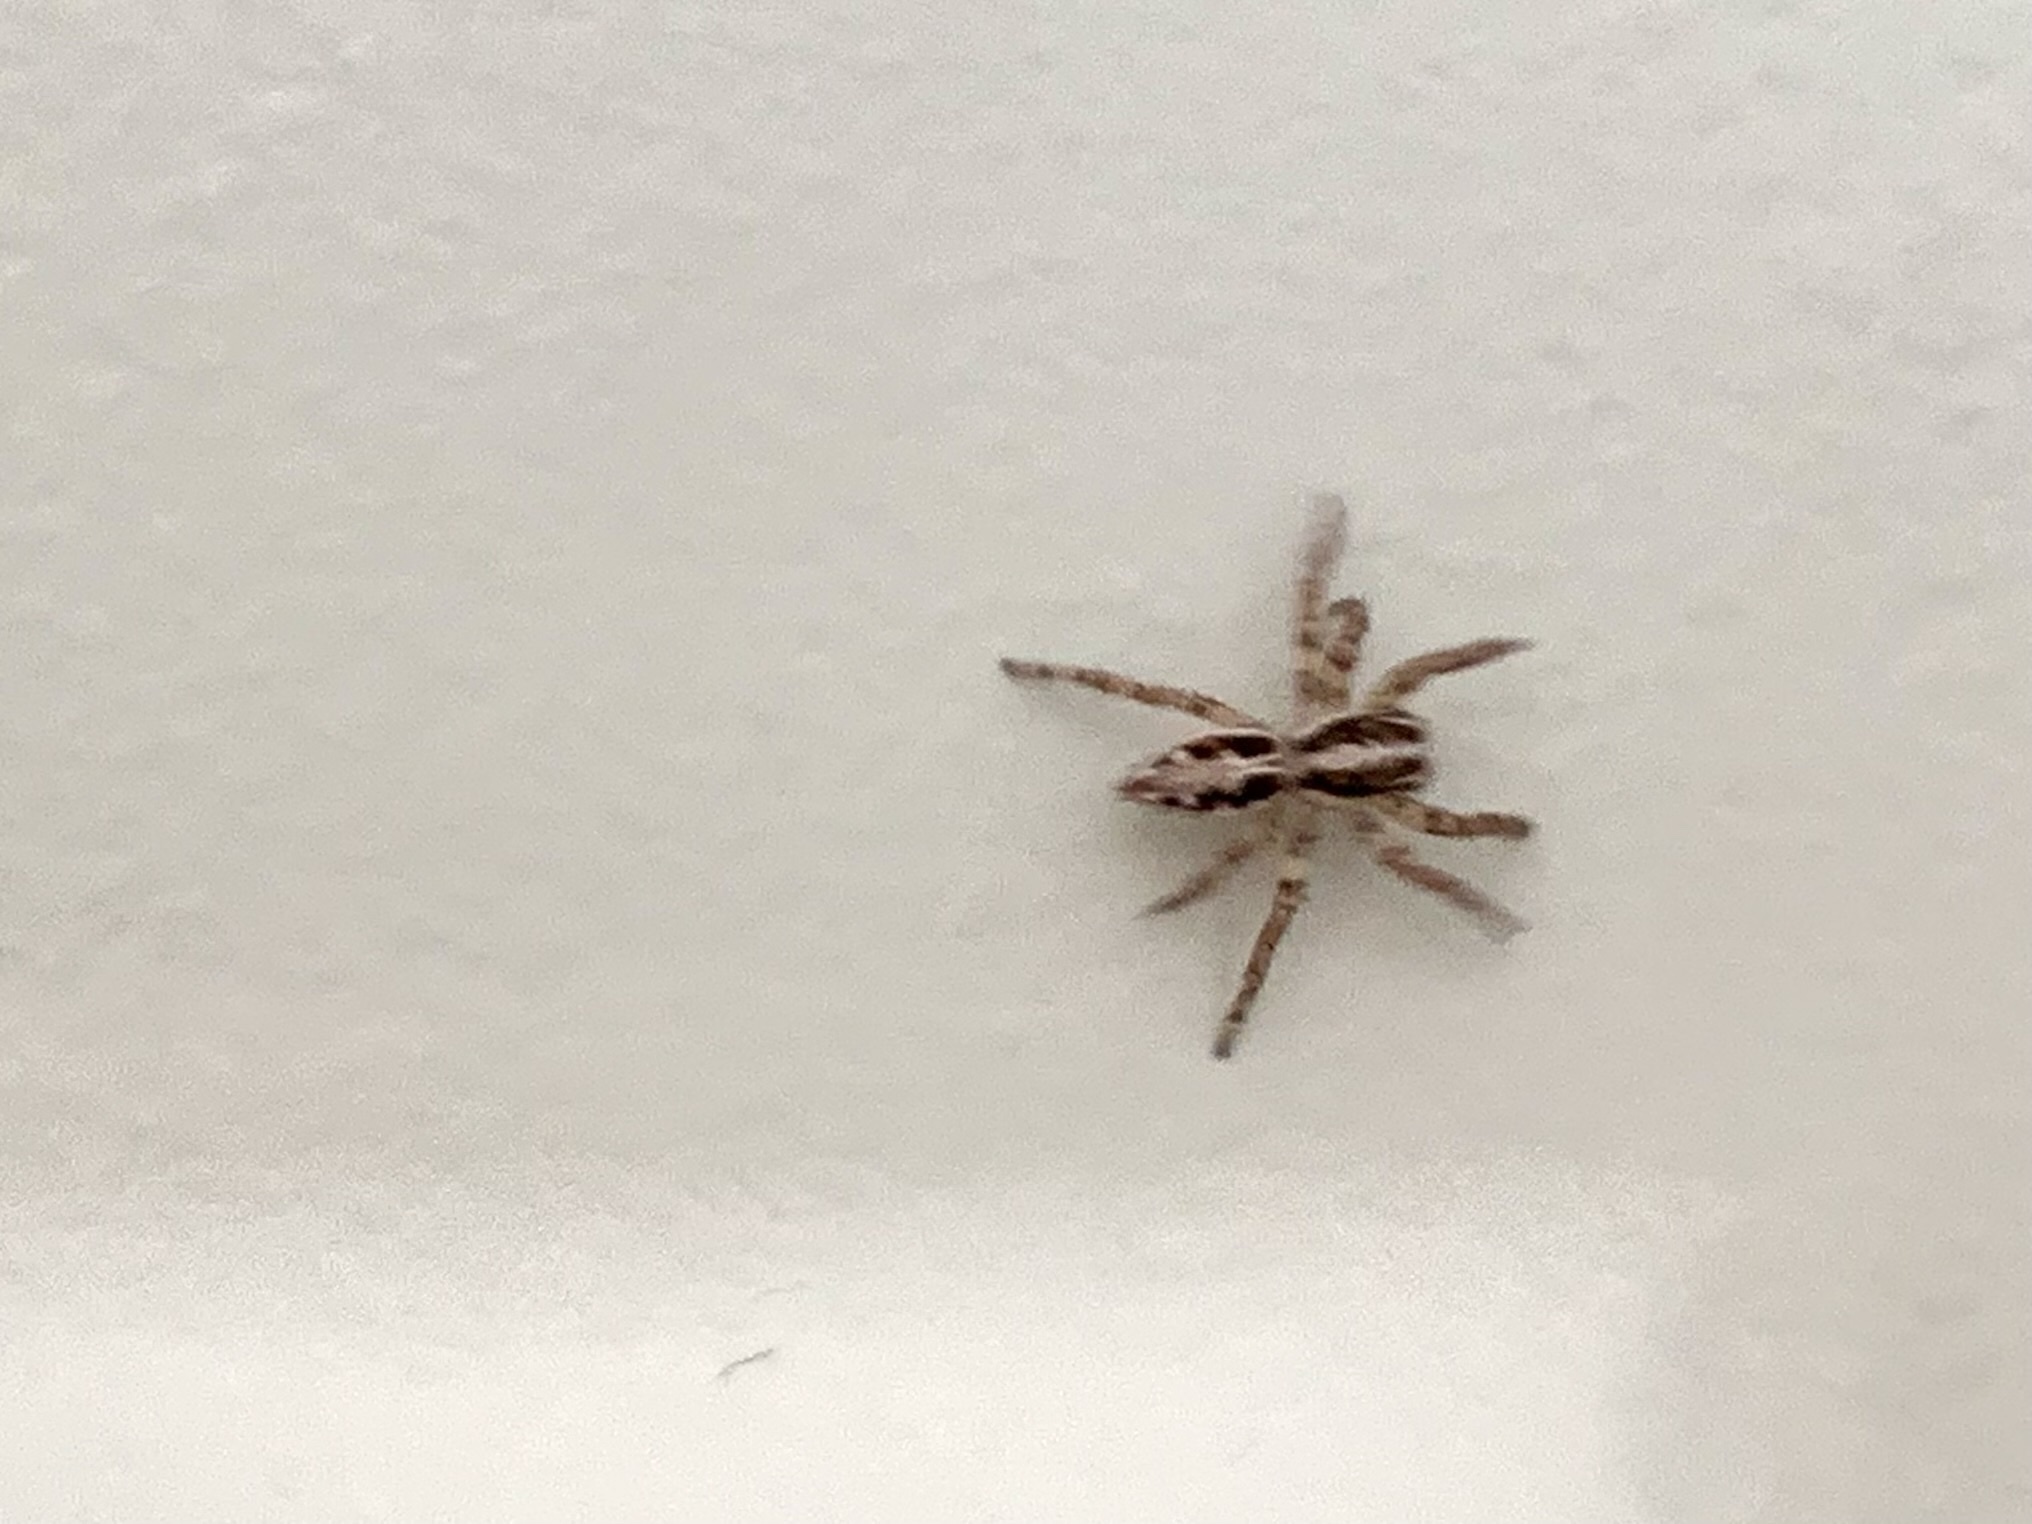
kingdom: Animalia
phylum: Arthropoda
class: Arachnida
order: Araneae
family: Salticidae
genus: Plexippus
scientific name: Plexippus paykulli
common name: Pantropical jumper
